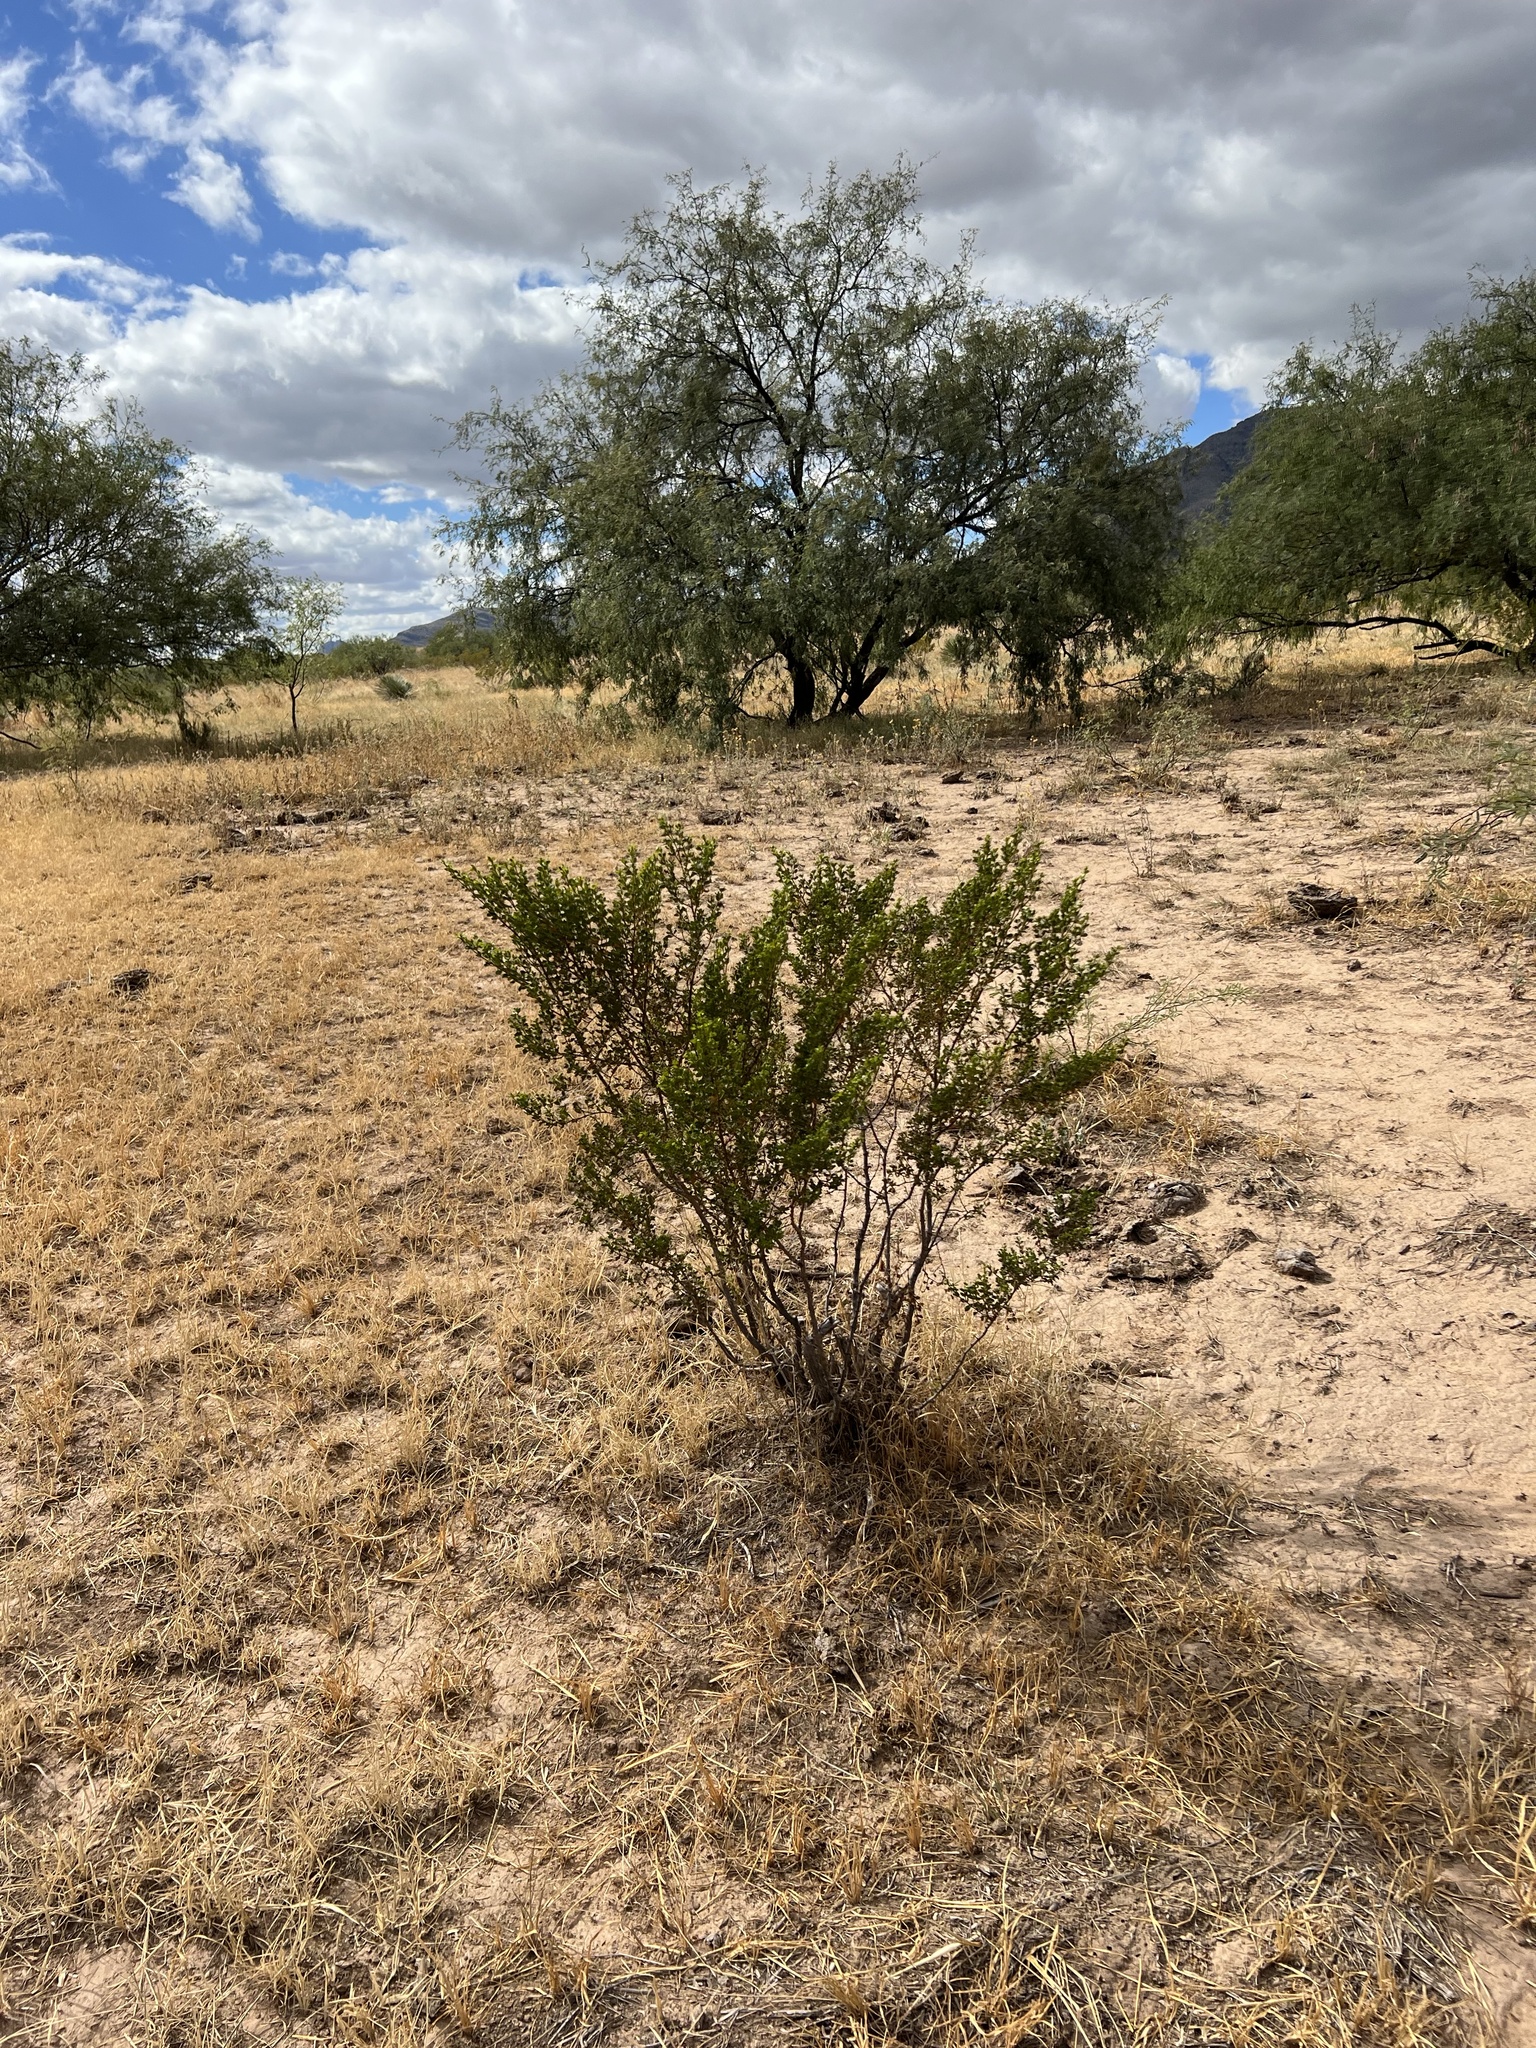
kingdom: Plantae
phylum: Tracheophyta
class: Magnoliopsida
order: Zygophyllales
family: Zygophyllaceae
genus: Larrea
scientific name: Larrea tridentata
